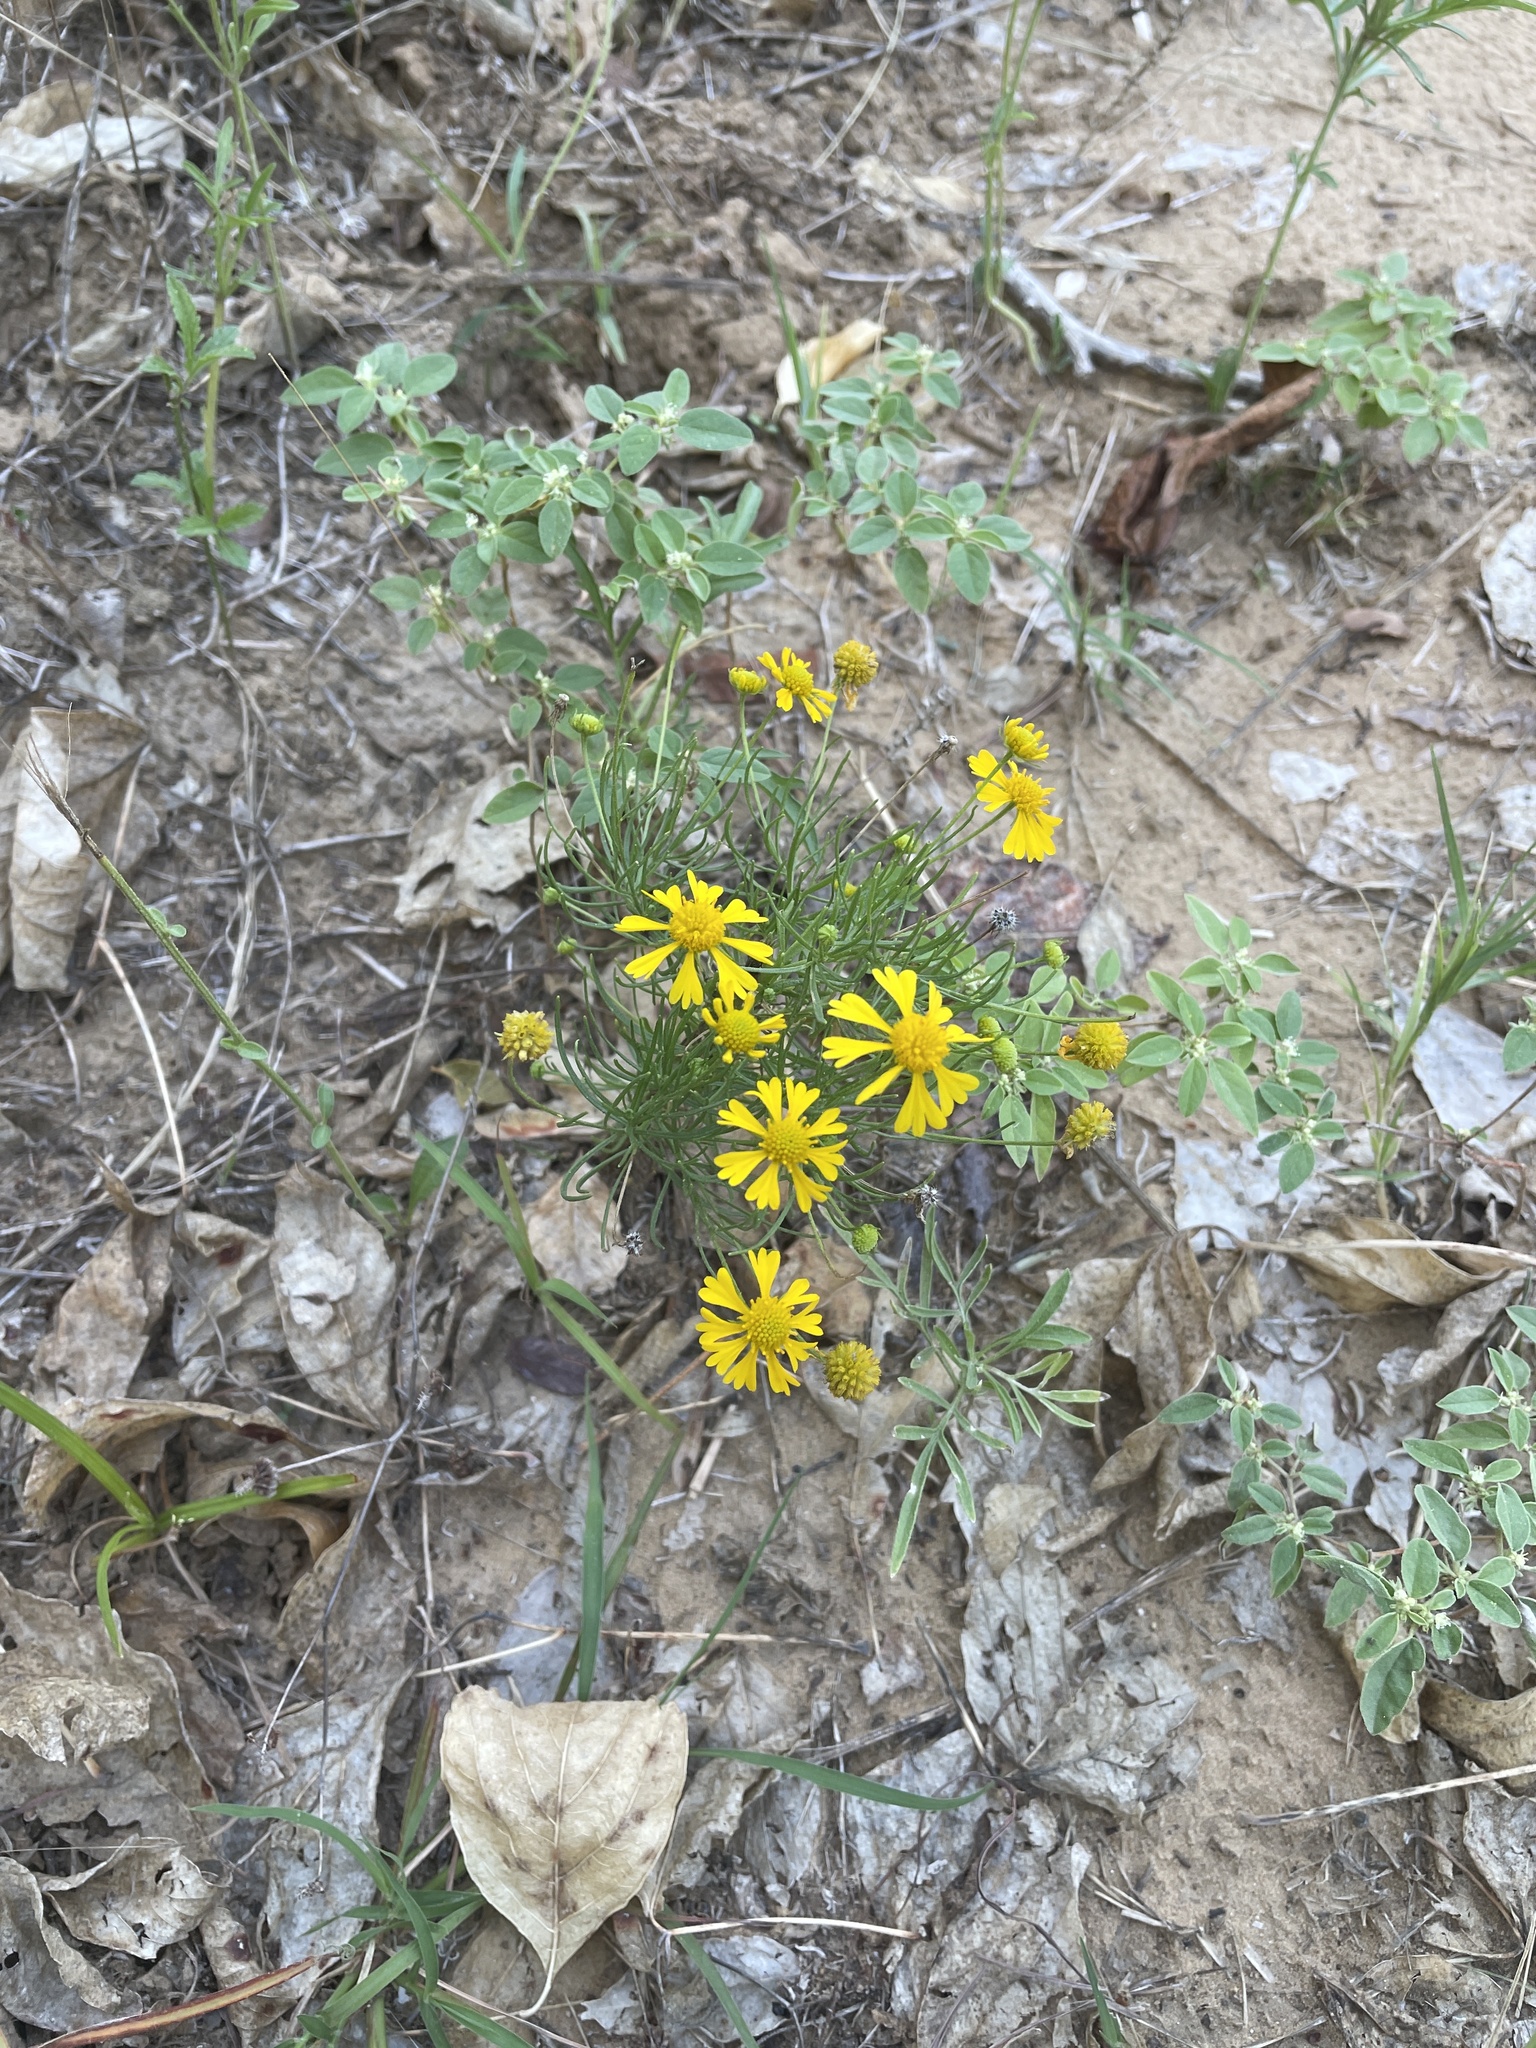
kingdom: Plantae
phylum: Tracheophyta
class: Magnoliopsida
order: Asterales
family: Asteraceae
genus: Helenium
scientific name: Helenium amarum
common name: Bitter sneezeweed
